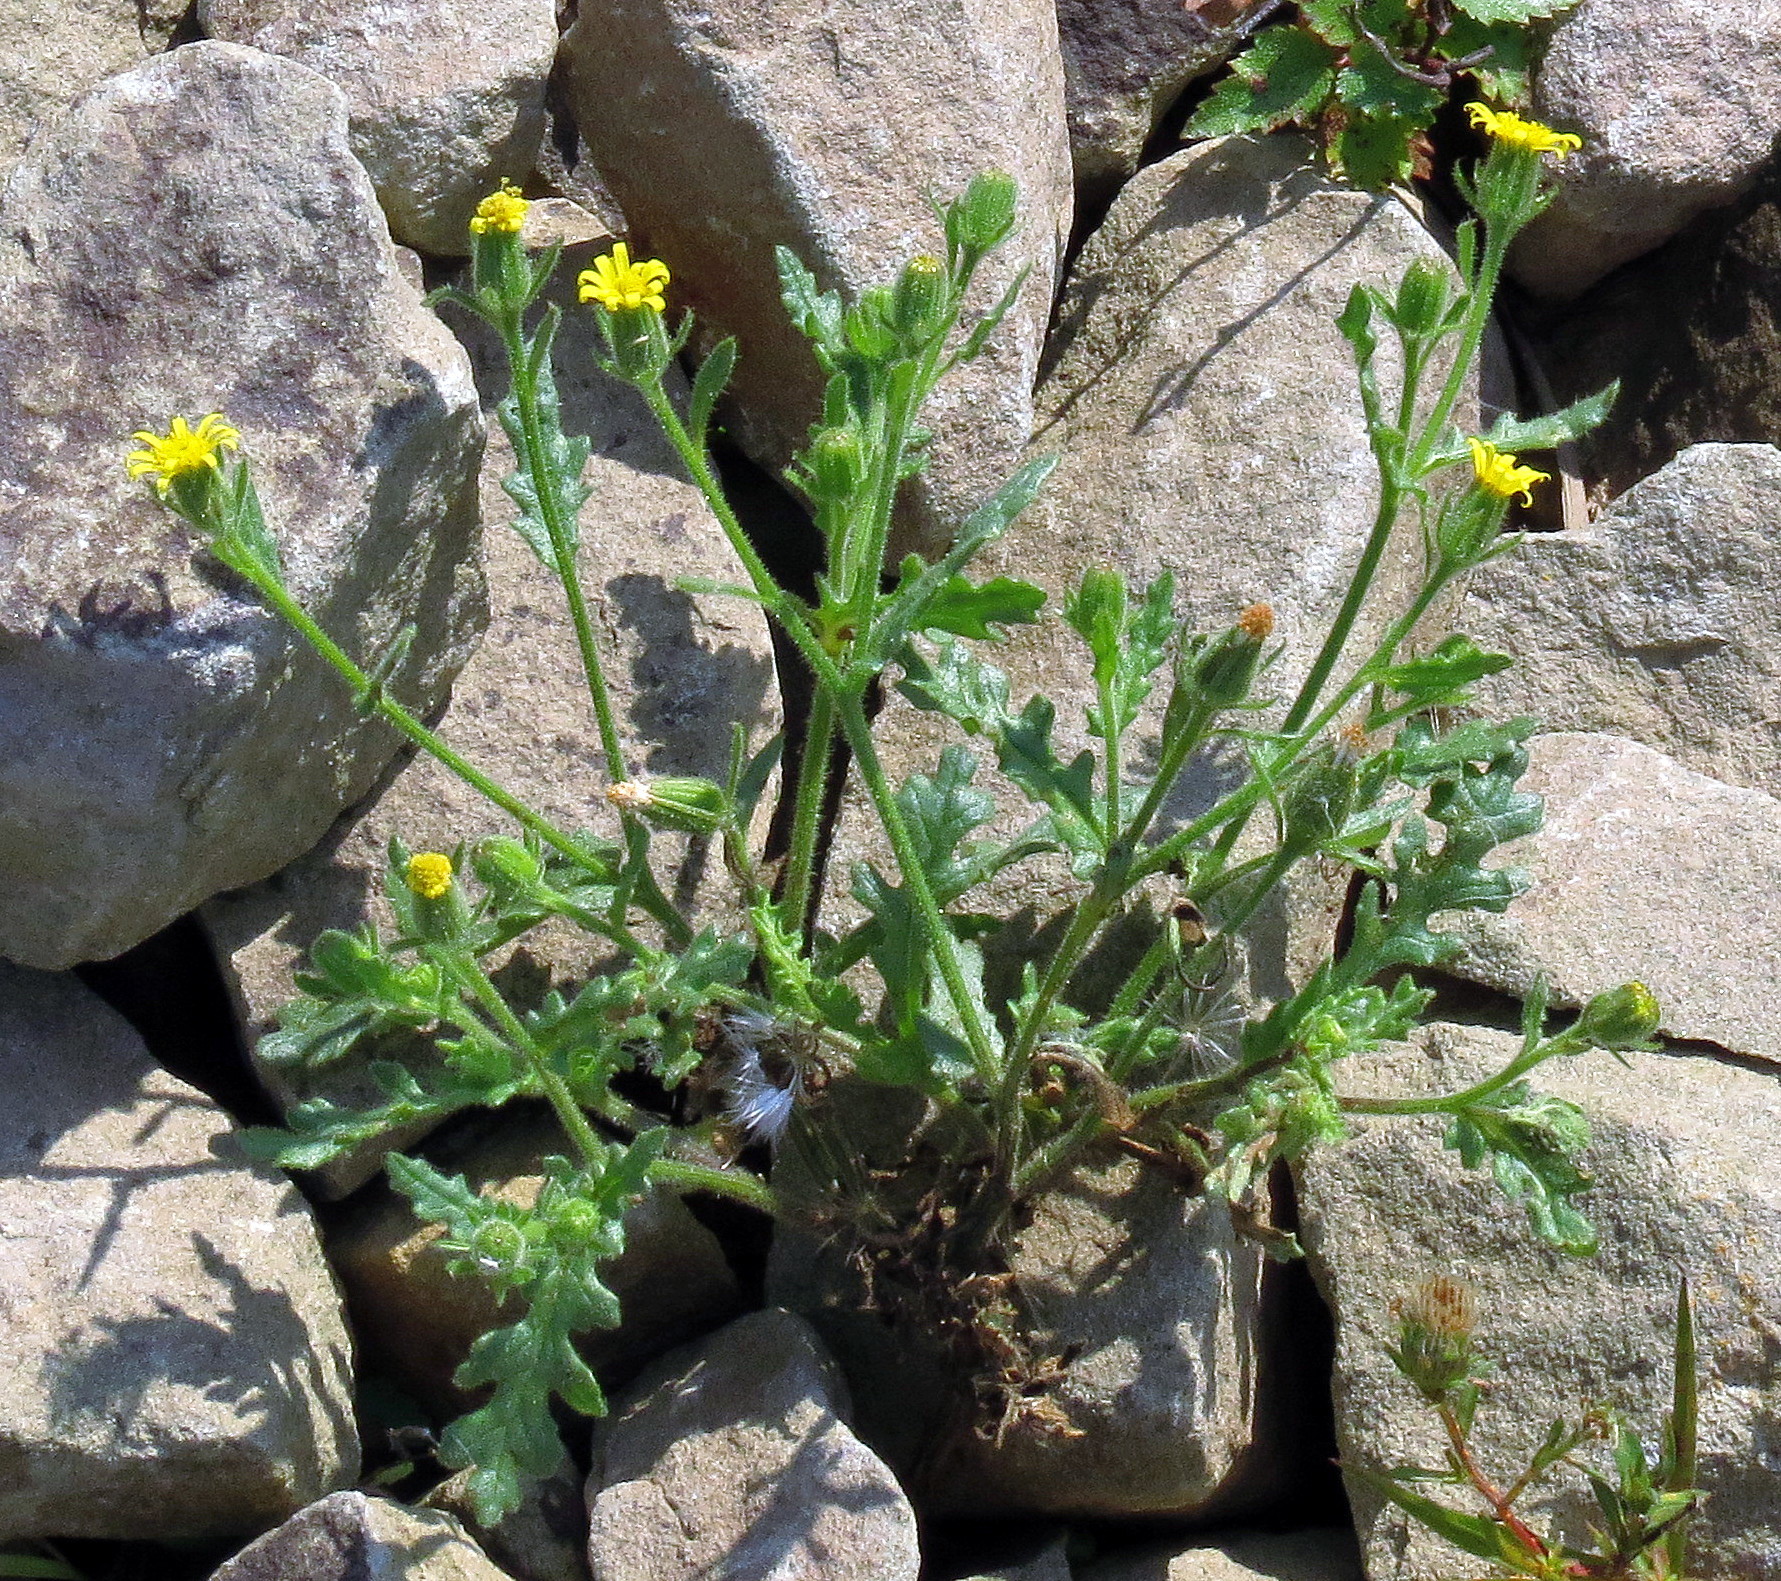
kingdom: Plantae
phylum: Tracheophyta
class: Magnoliopsida
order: Asterales
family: Asteraceae
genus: Senecio
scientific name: Senecio viscosus
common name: Sticky groundsel
